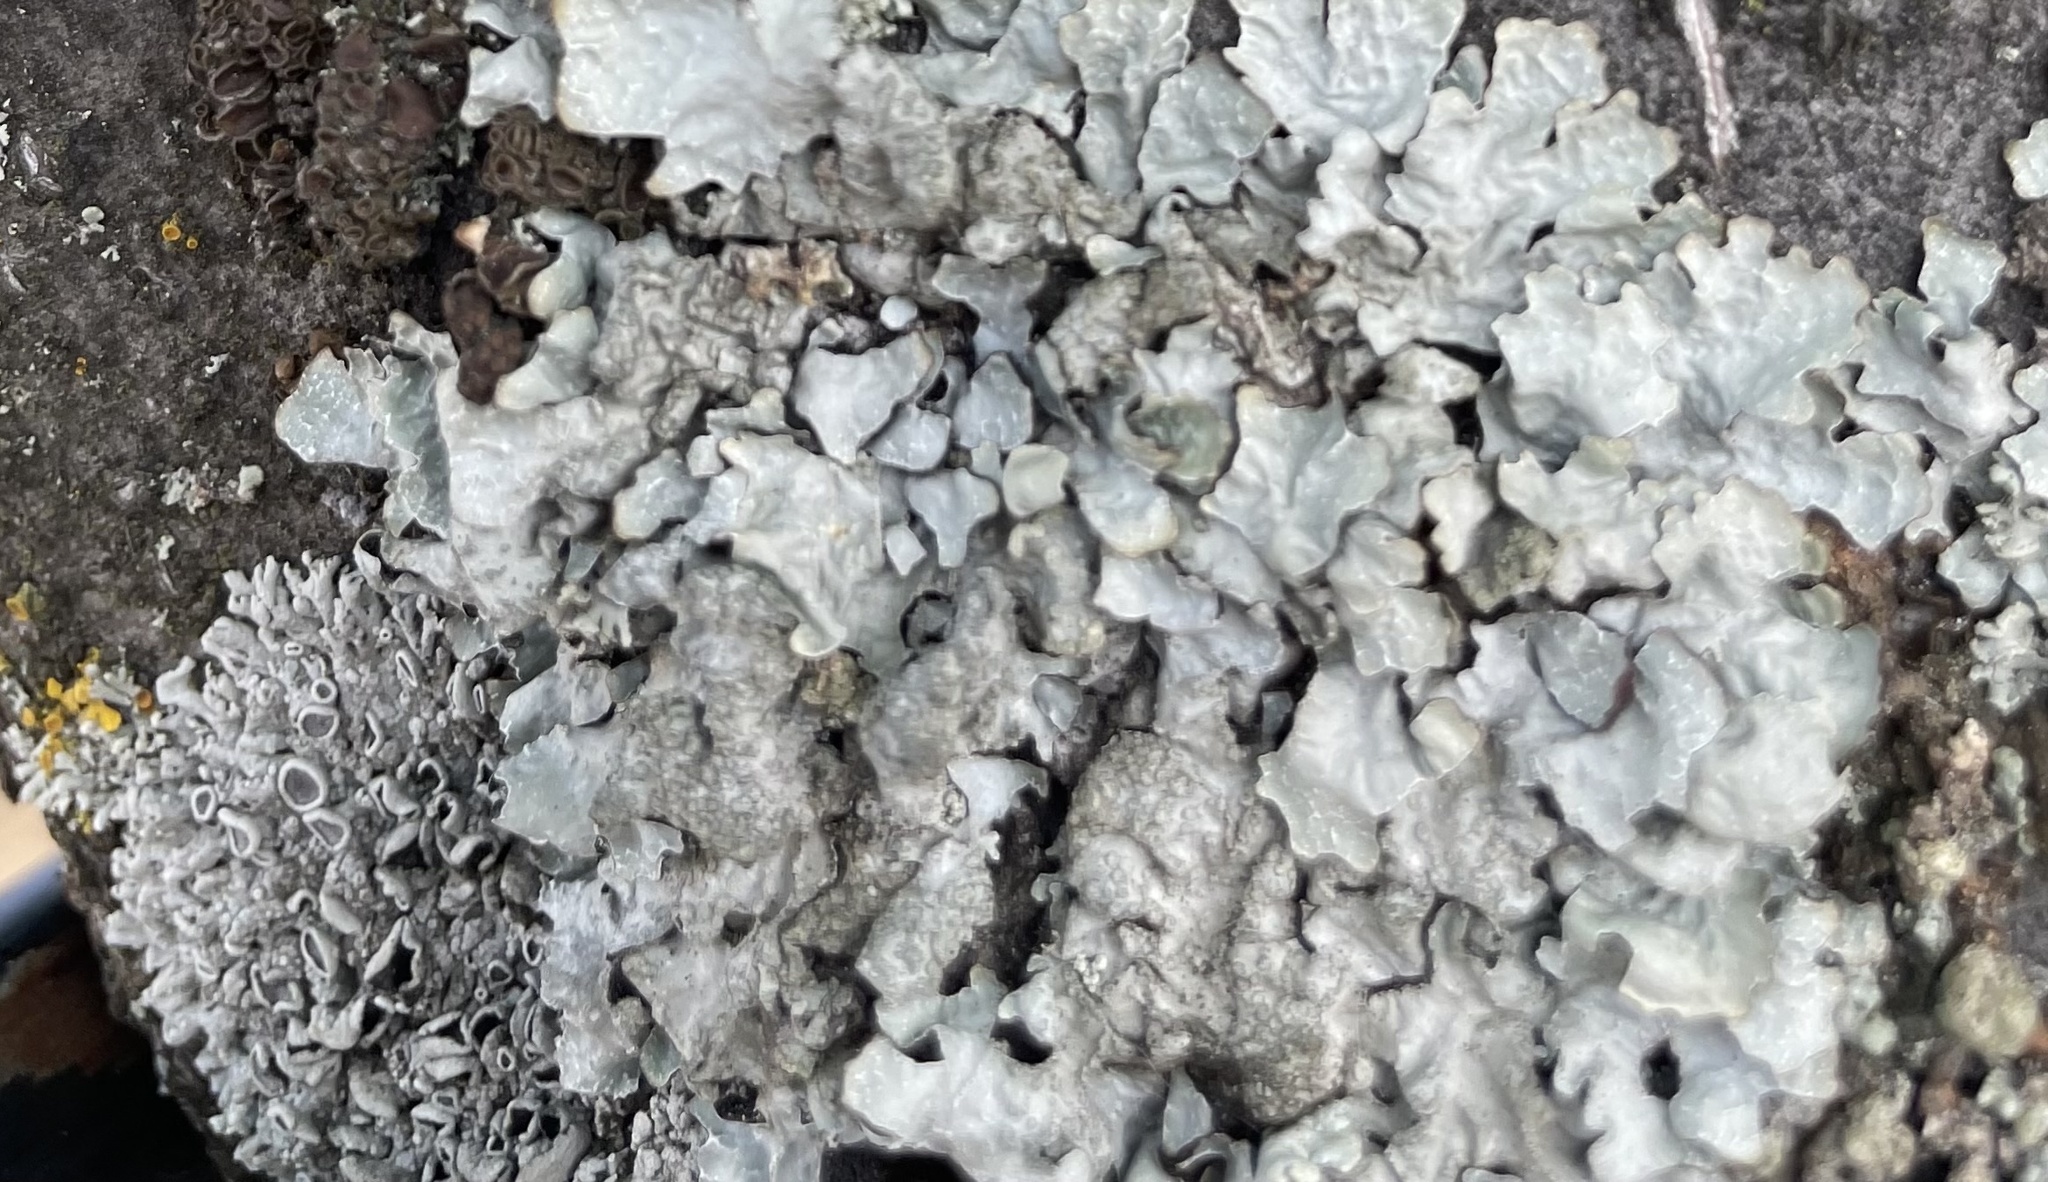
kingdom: Fungi
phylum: Ascomycota
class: Lecanoromycetes
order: Lecanorales
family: Parmeliaceae
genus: Parmelia
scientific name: Parmelia sulcata
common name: Netted shield lichen
